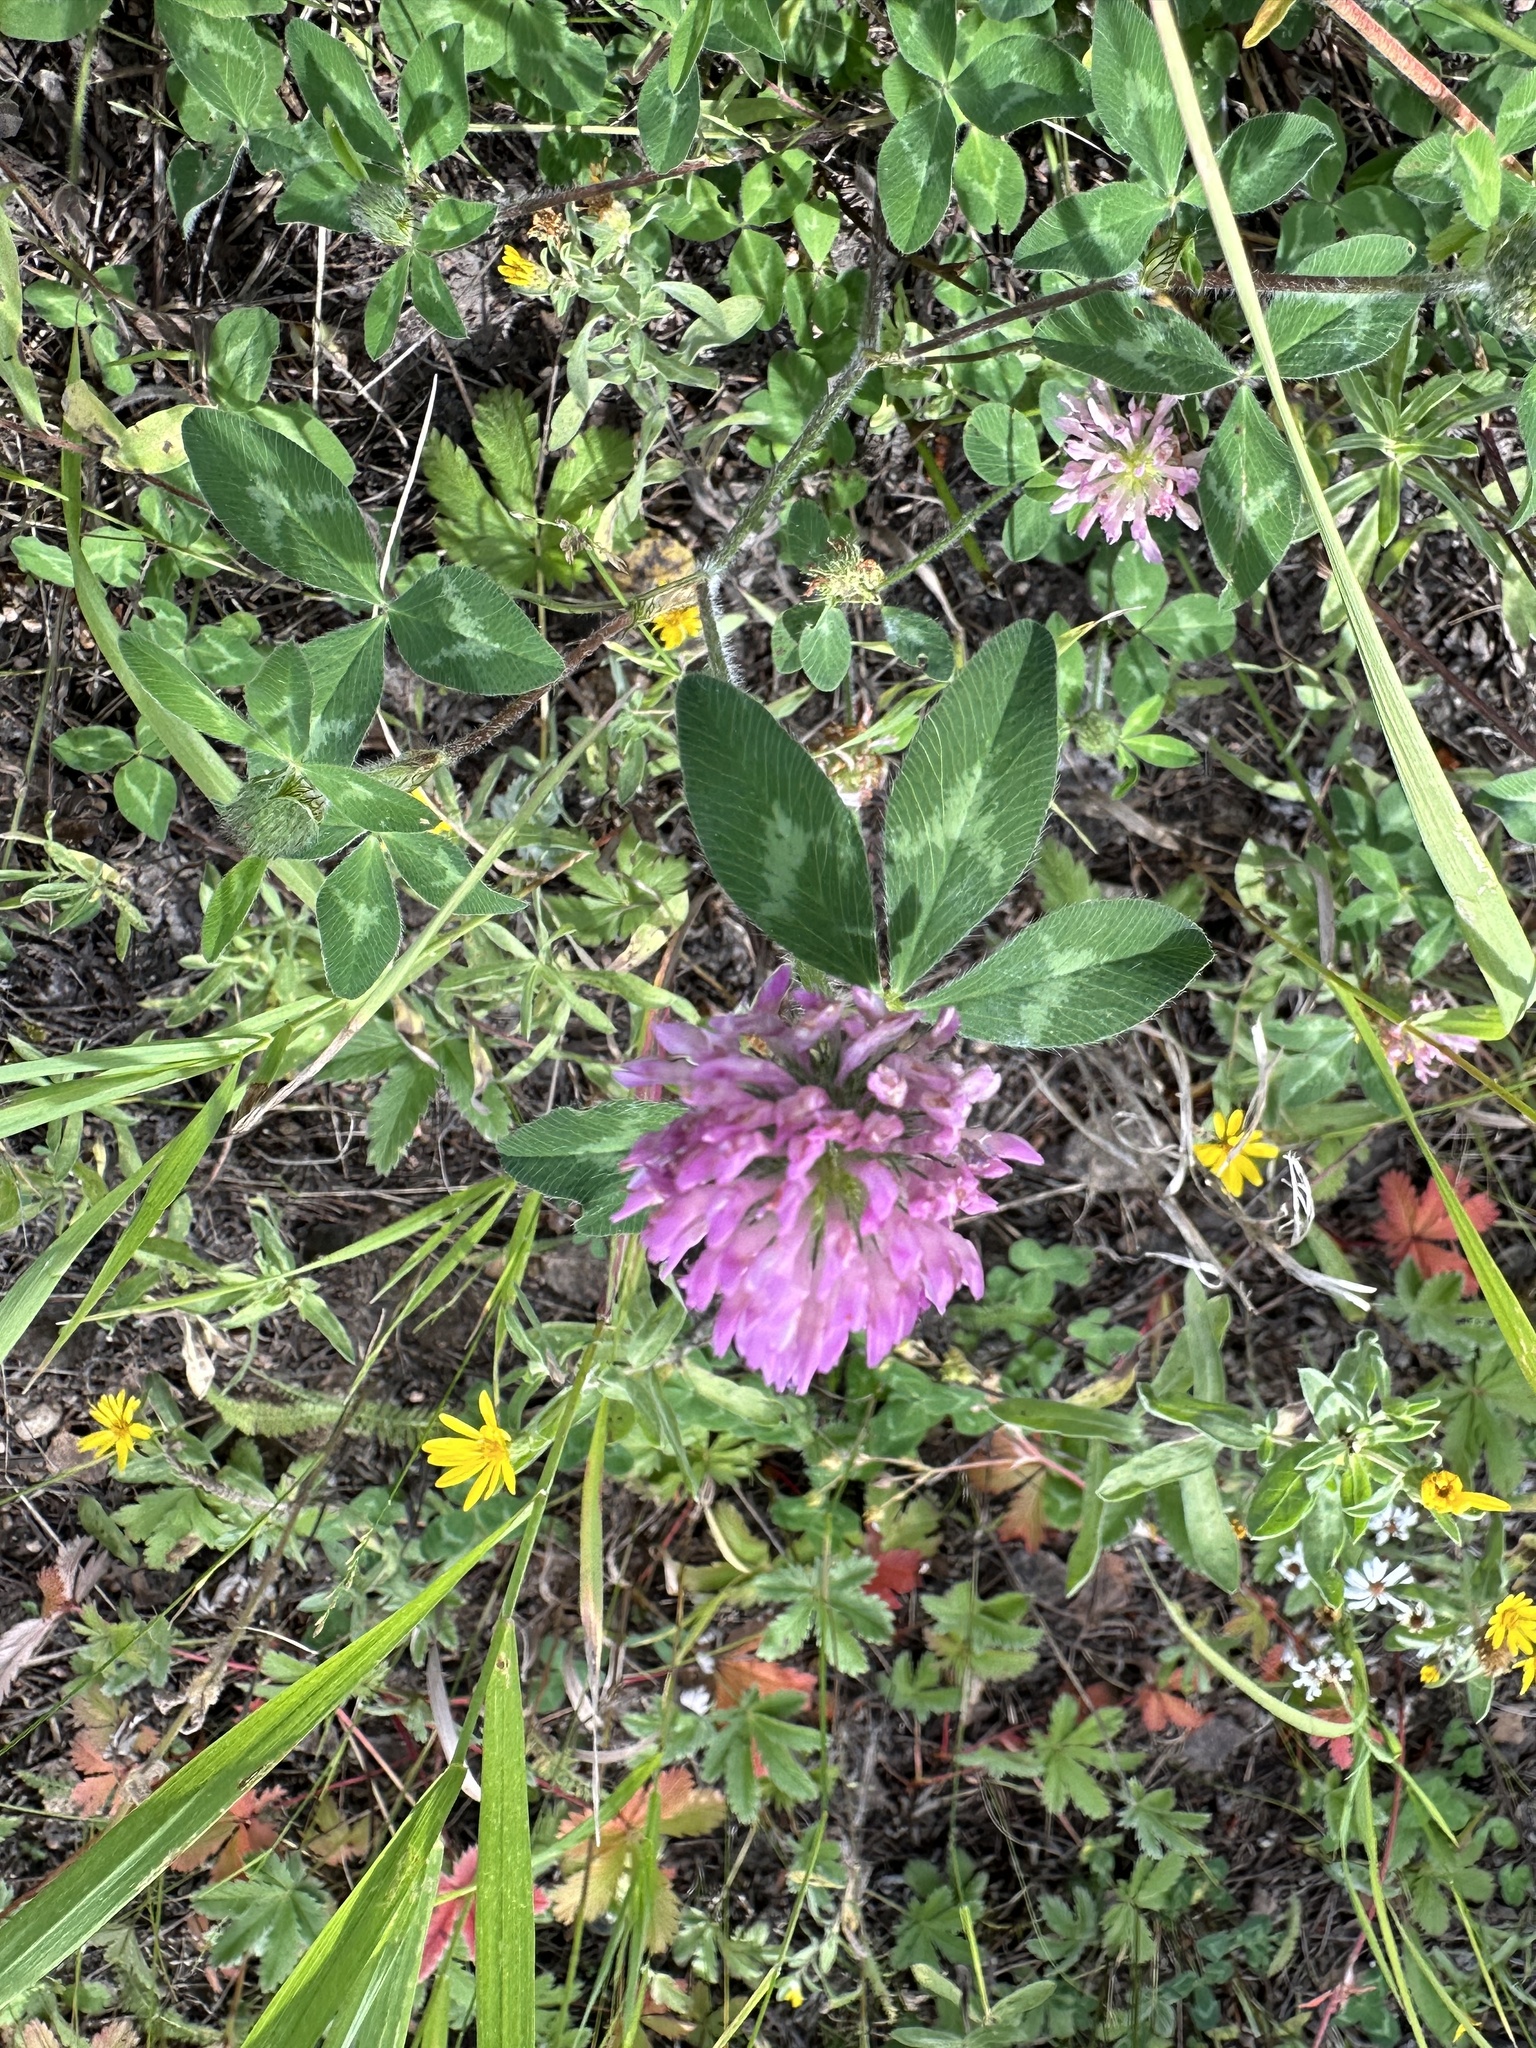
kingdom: Plantae
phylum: Tracheophyta
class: Magnoliopsida
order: Fabales
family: Fabaceae
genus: Trifolium
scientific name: Trifolium pratense
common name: Red clover
